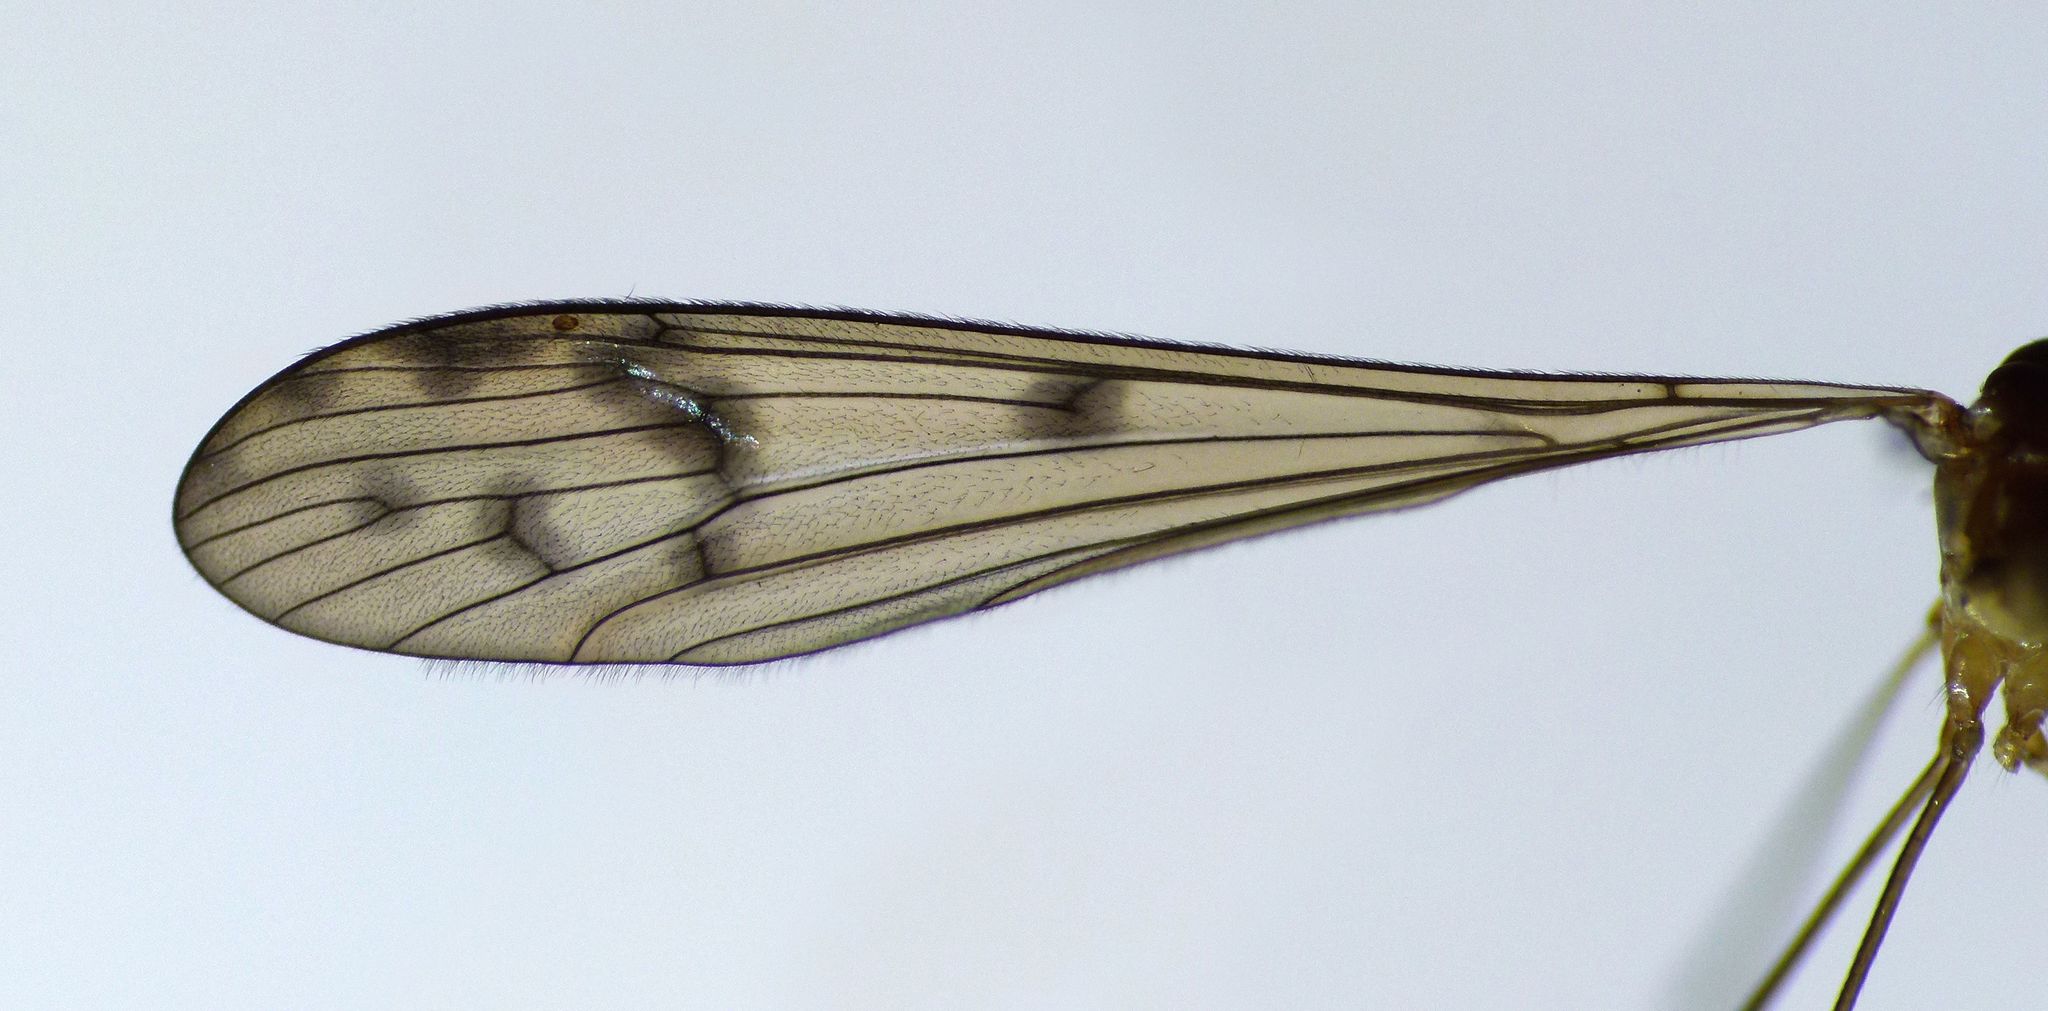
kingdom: Animalia
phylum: Arthropoda
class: Insecta
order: Diptera
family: Limoniidae
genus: Nothophila
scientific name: Nothophila fuscana
